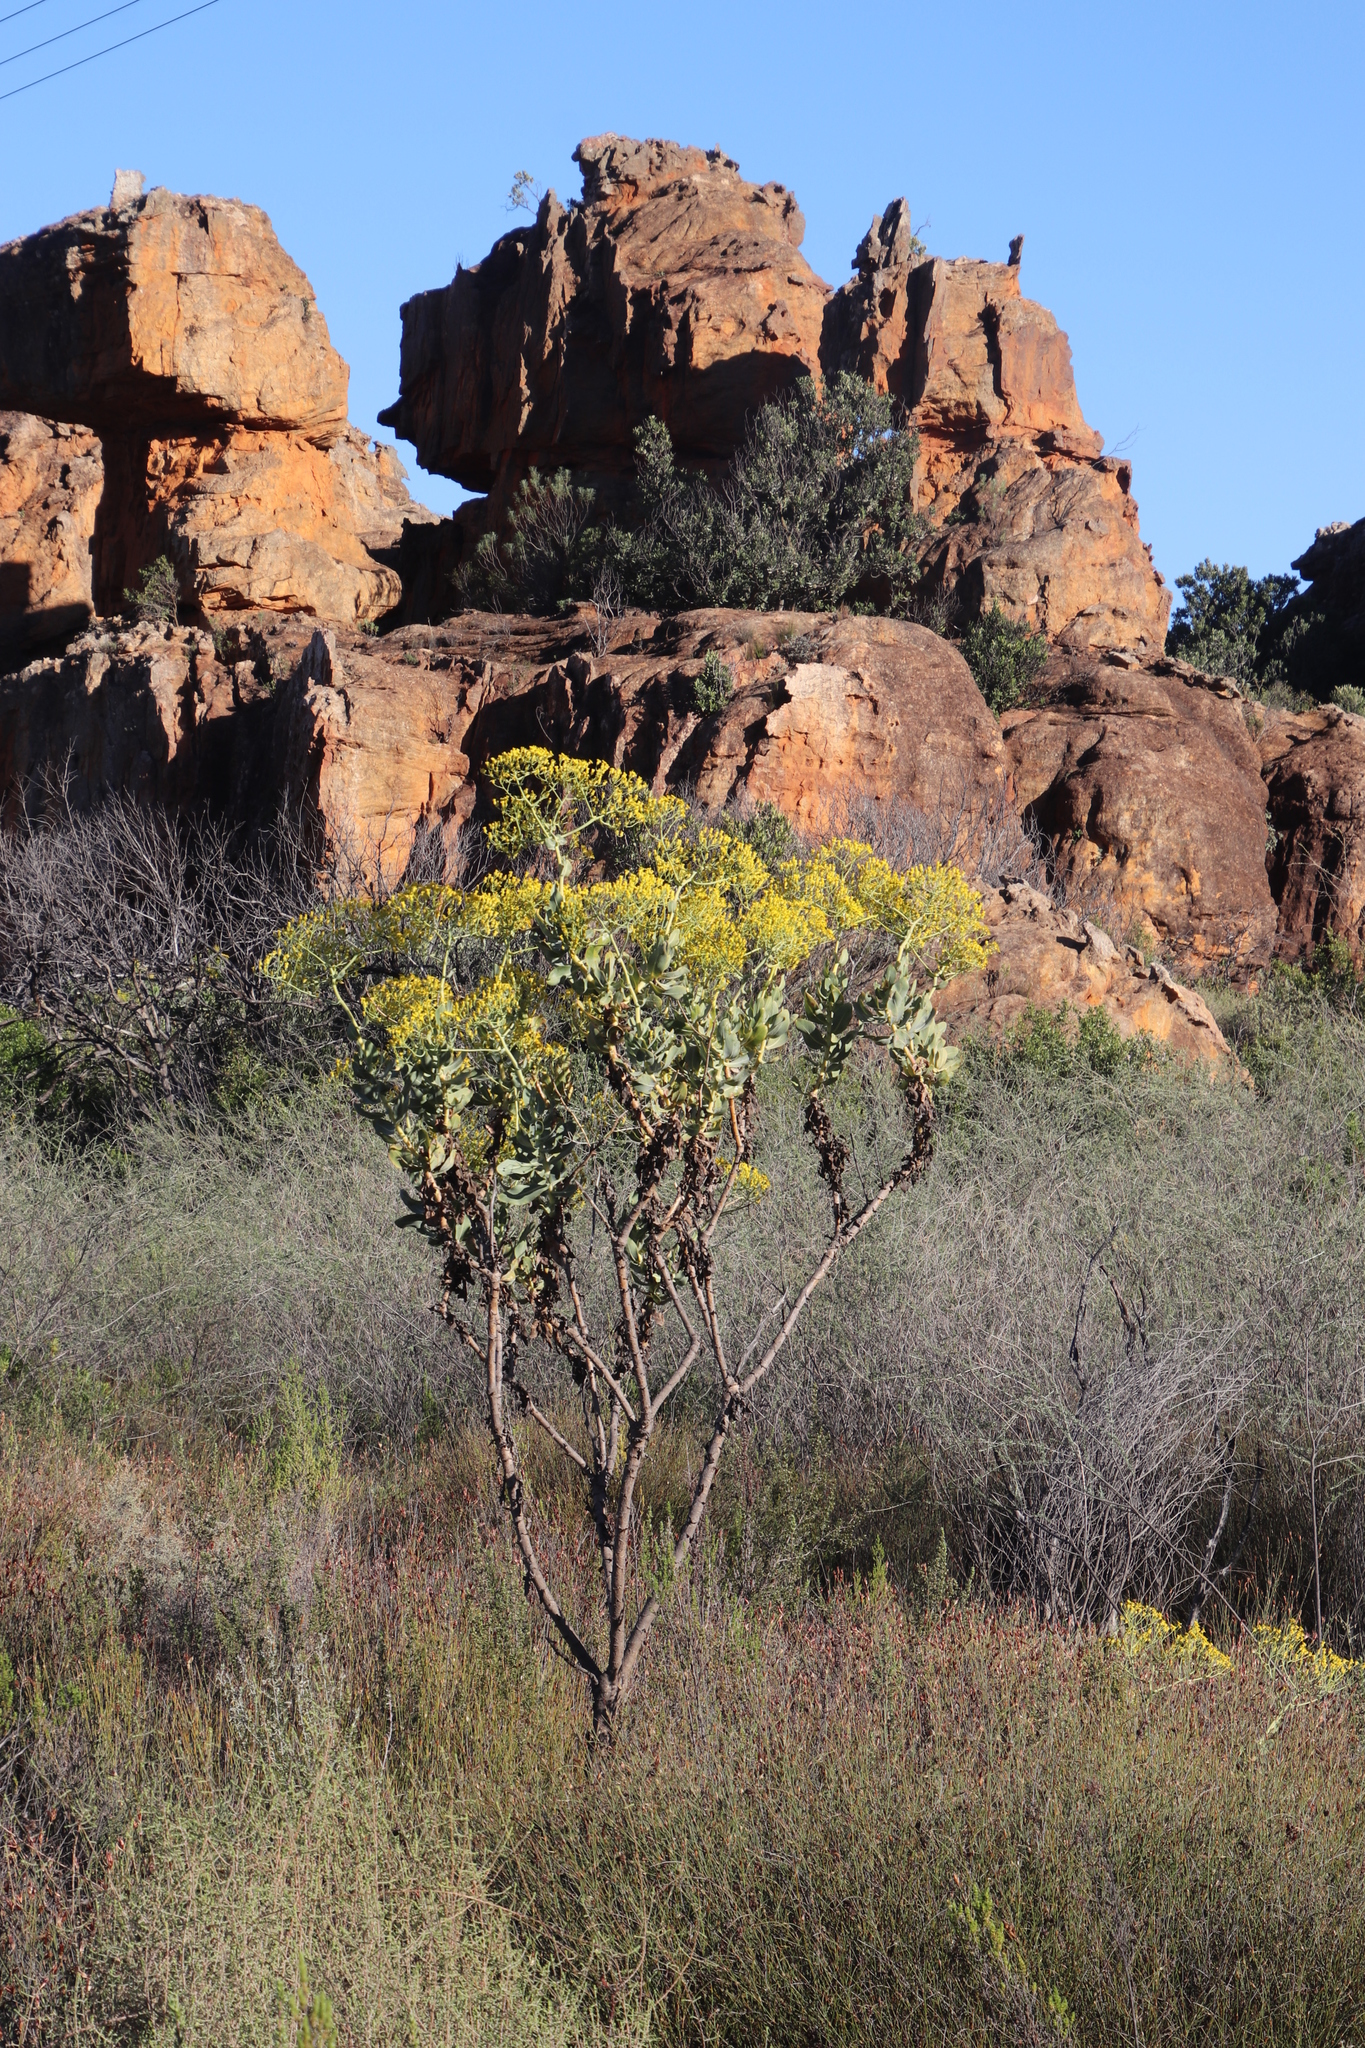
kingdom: Plantae
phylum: Tracheophyta
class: Magnoliopsida
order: Asterales
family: Asteraceae
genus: Othonna
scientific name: Othonna parviflora
